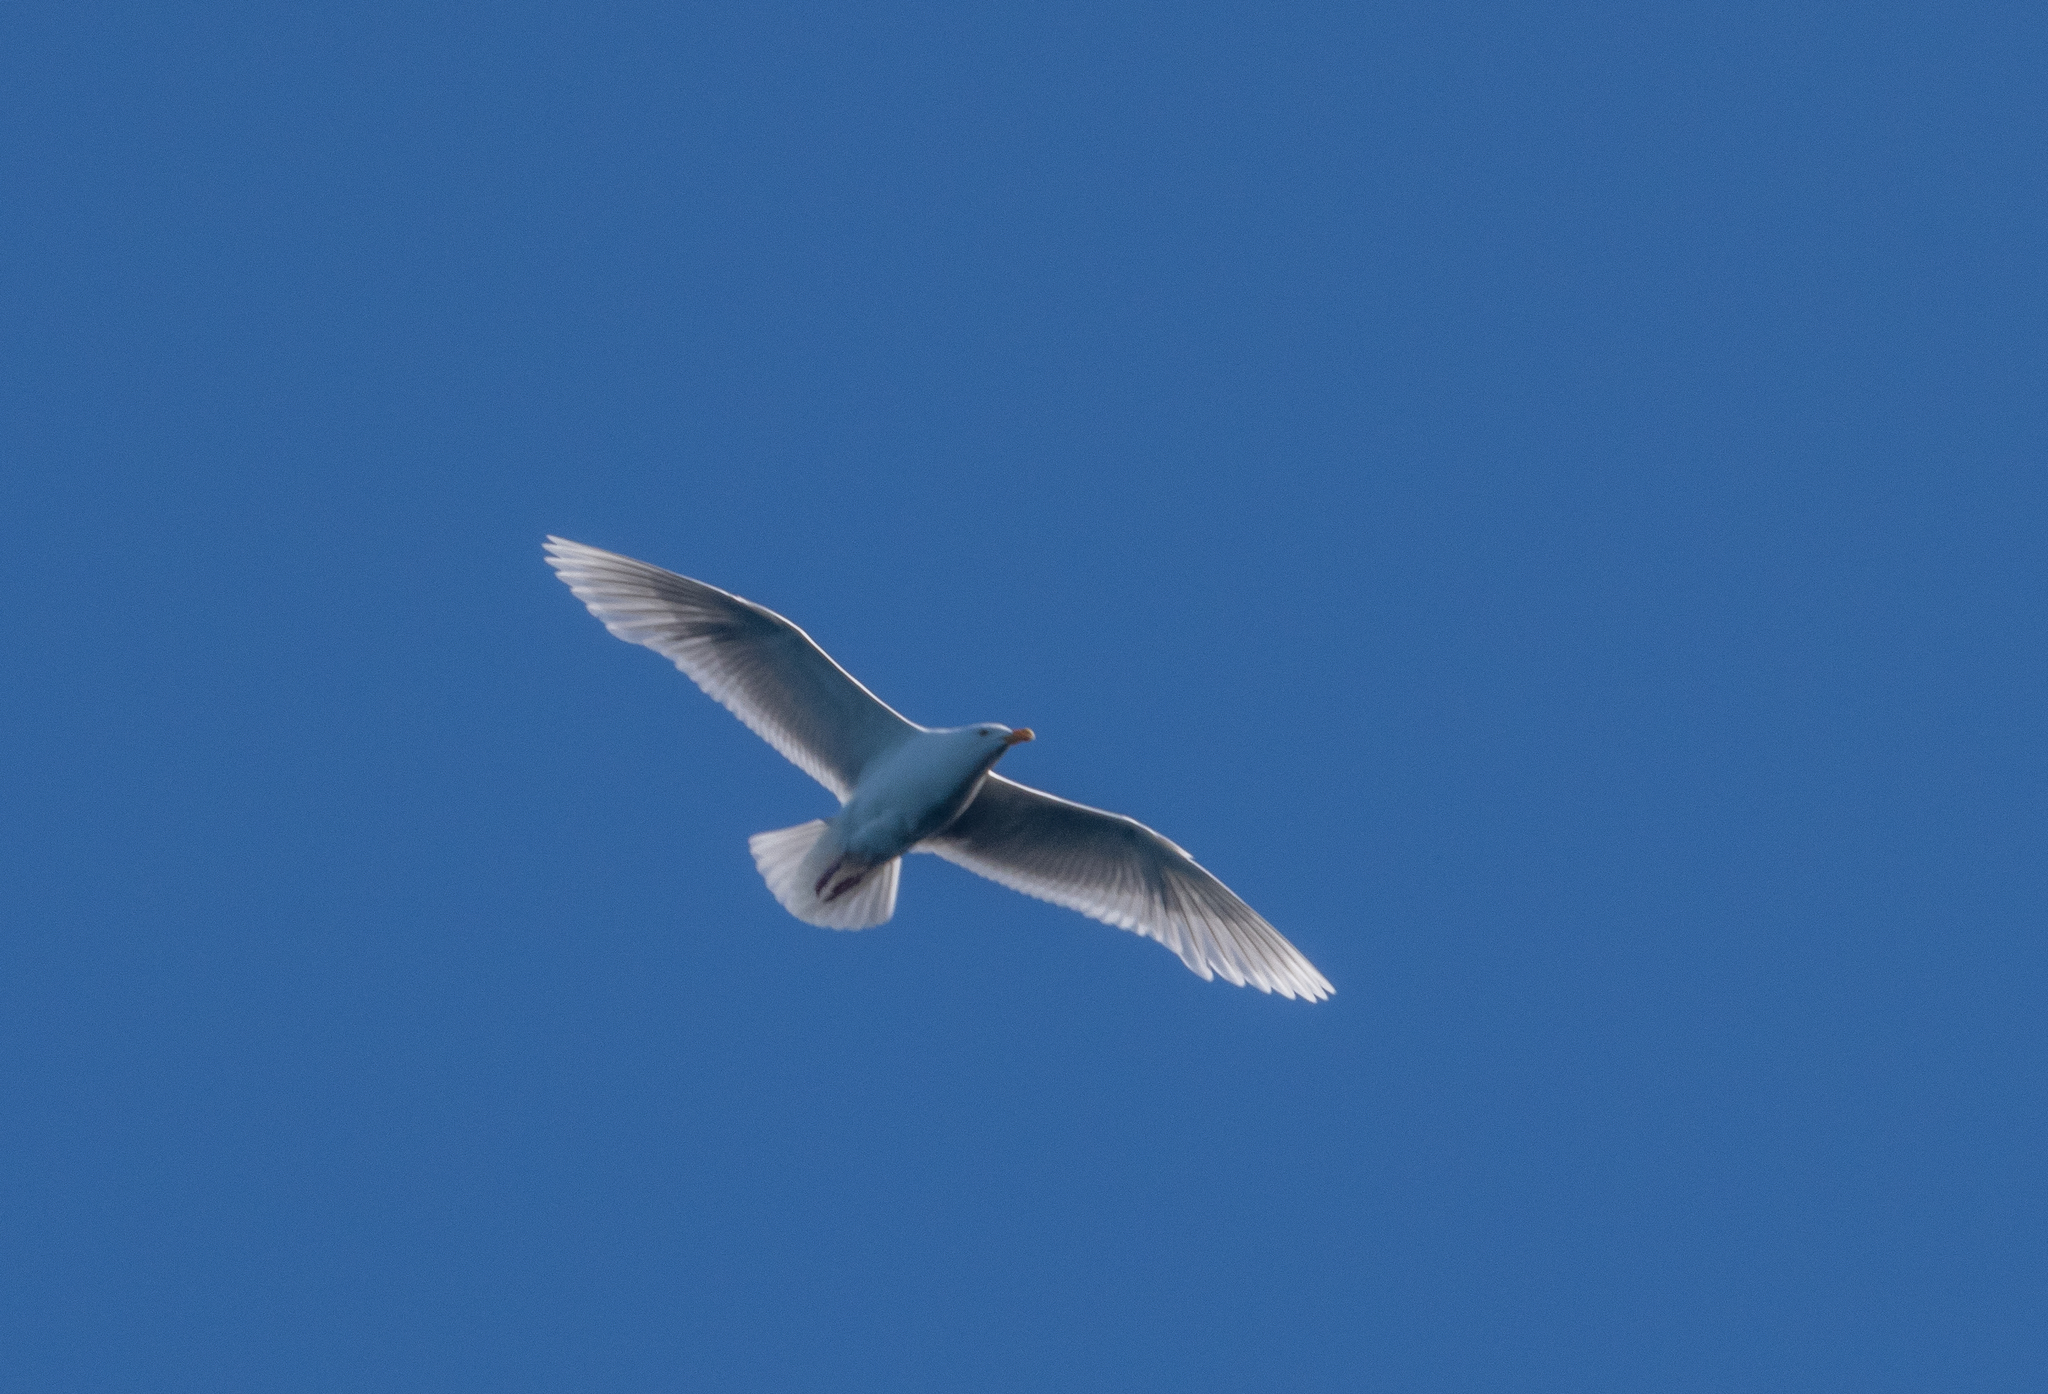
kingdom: Animalia
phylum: Chordata
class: Aves
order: Charadriiformes
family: Laridae
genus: Larus
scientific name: Larus hyperboreus
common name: Glaucous gull
